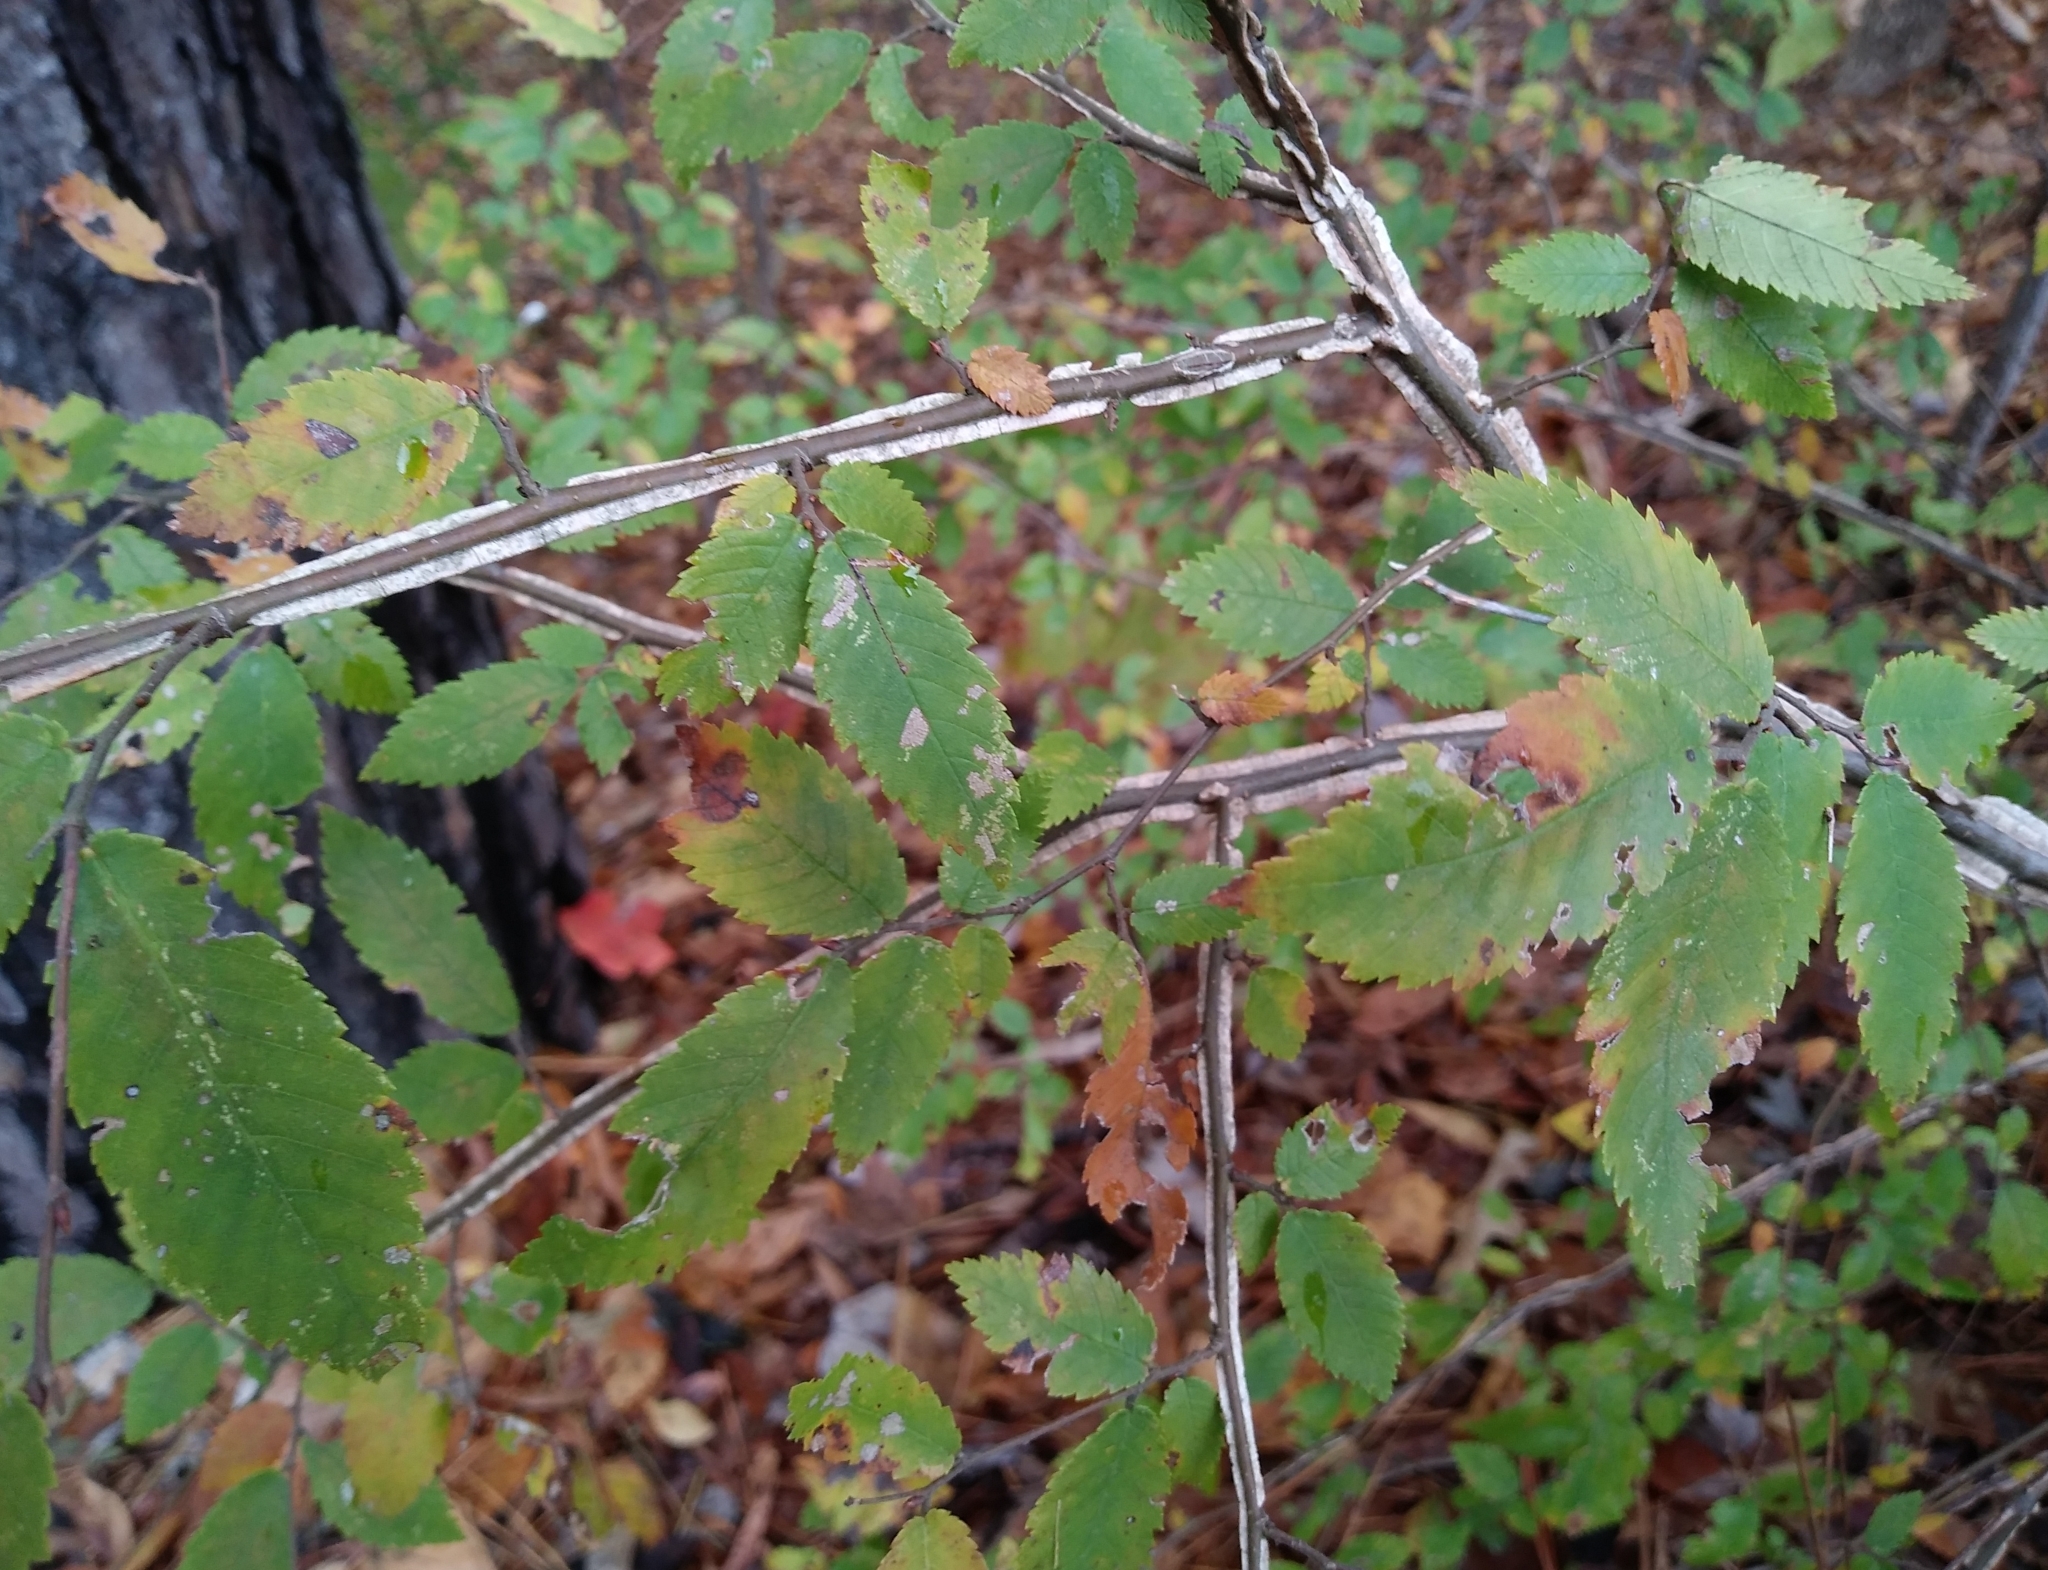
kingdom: Plantae
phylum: Tracheophyta
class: Magnoliopsida
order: Rosales
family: Ulmaceae
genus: Ulmus
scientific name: Ulmus alata
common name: Winged elm
